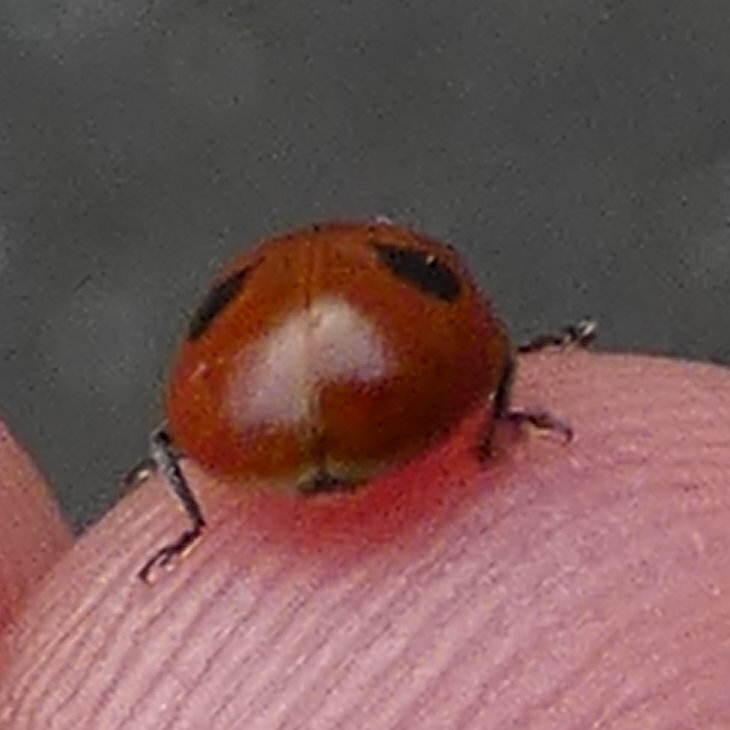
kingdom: Animalia
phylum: Arthropoda
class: Insecta
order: Coleoptera
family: Coccinellidae
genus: Adalia
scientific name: Adalia bipunctata
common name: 2-spot ladybird
